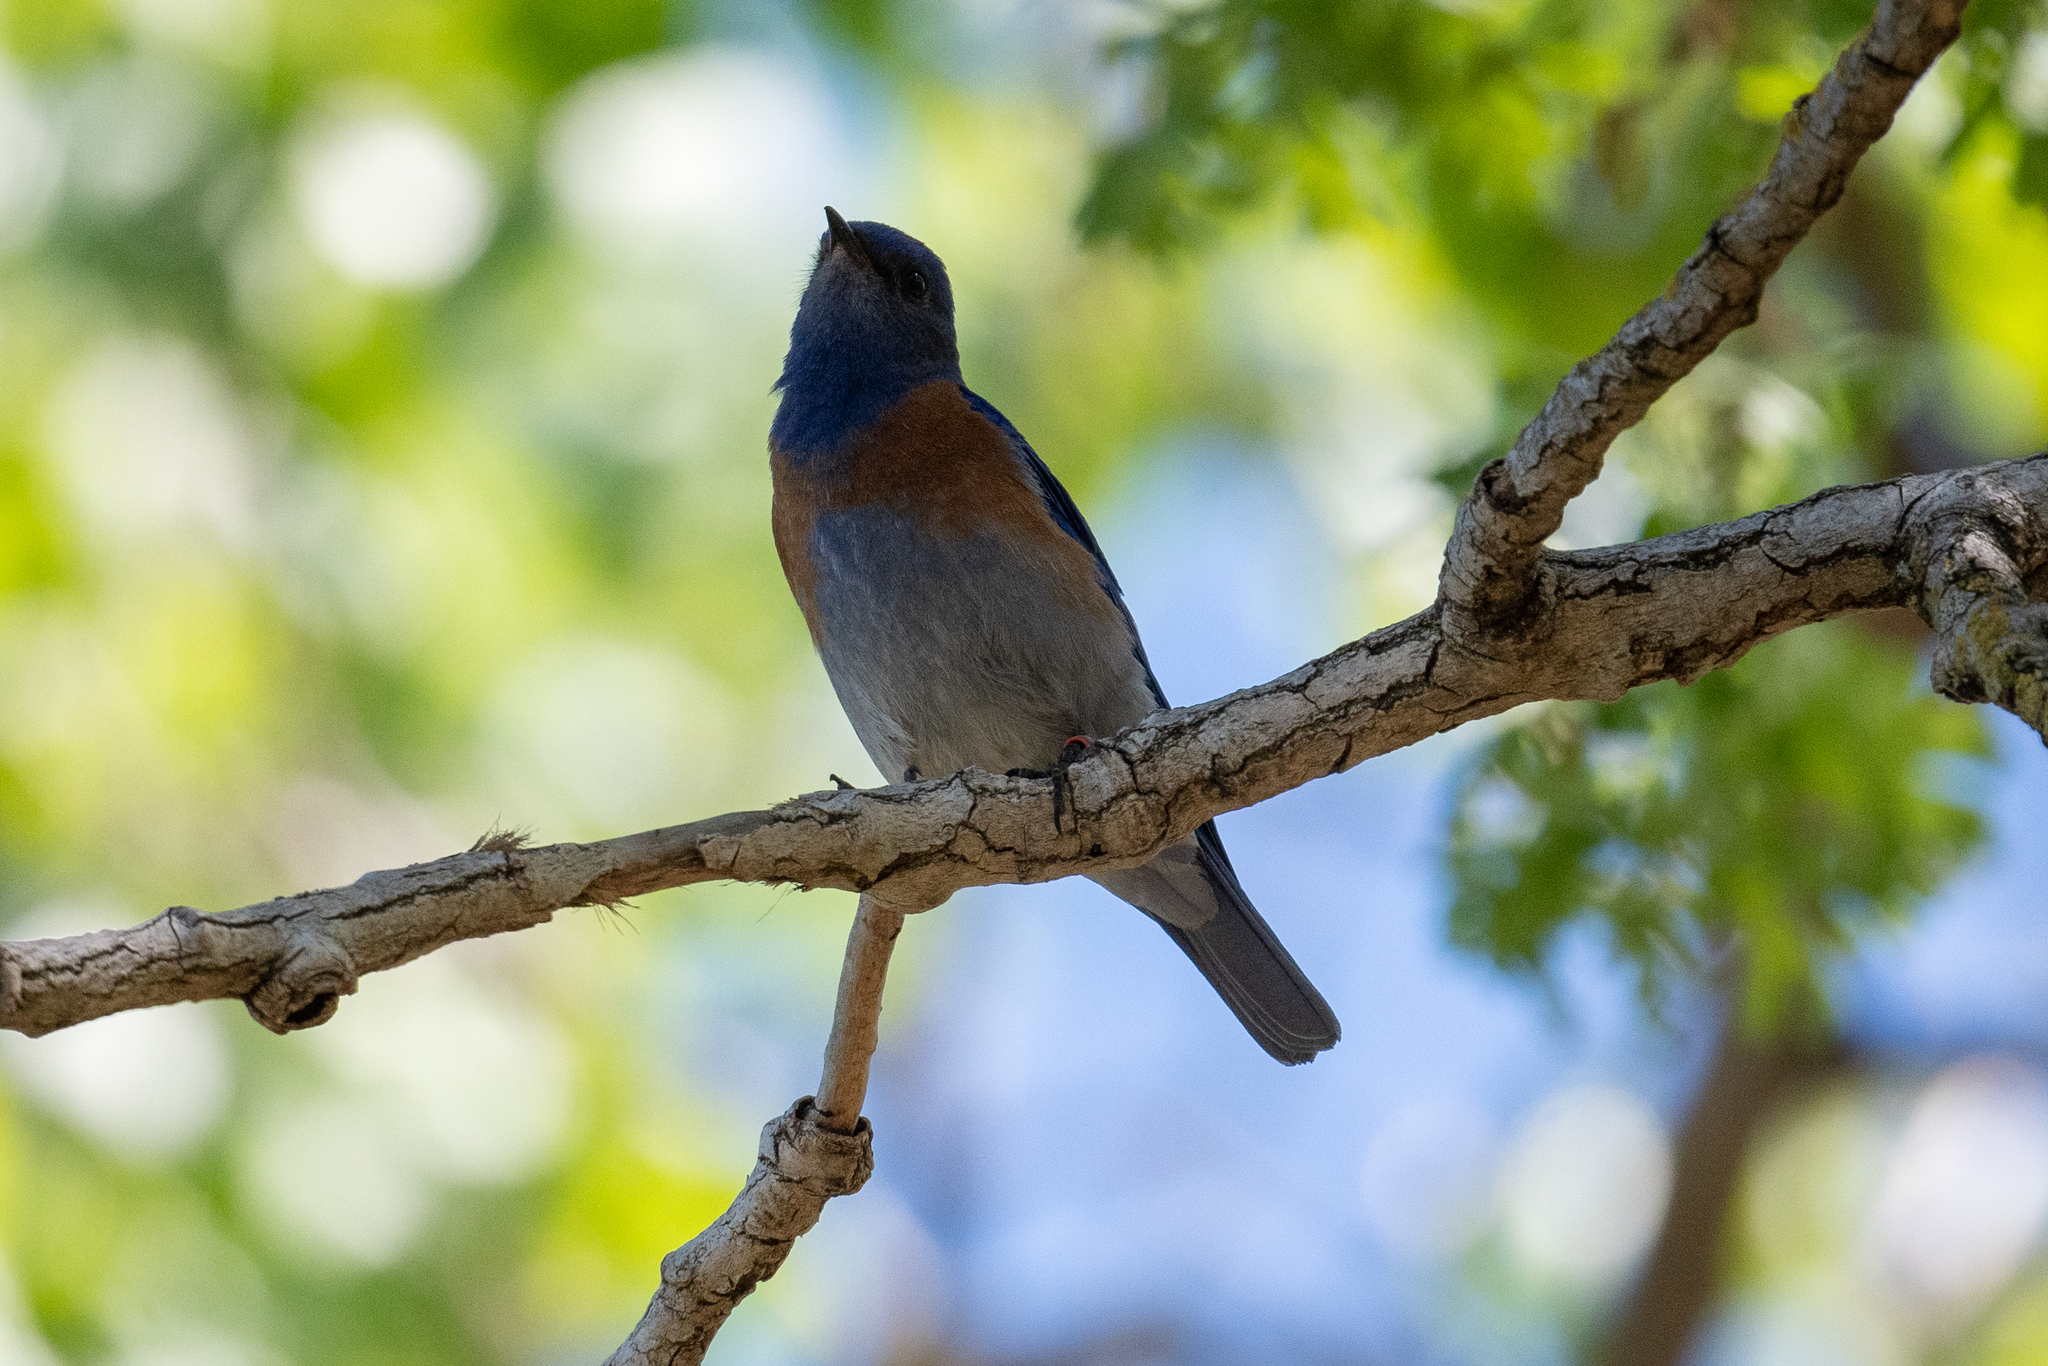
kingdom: Animalia
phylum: Chordata
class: Aves
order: Passeriformes
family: Turdidae
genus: Sialia
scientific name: Sialia mexicana
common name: Western bluebird
